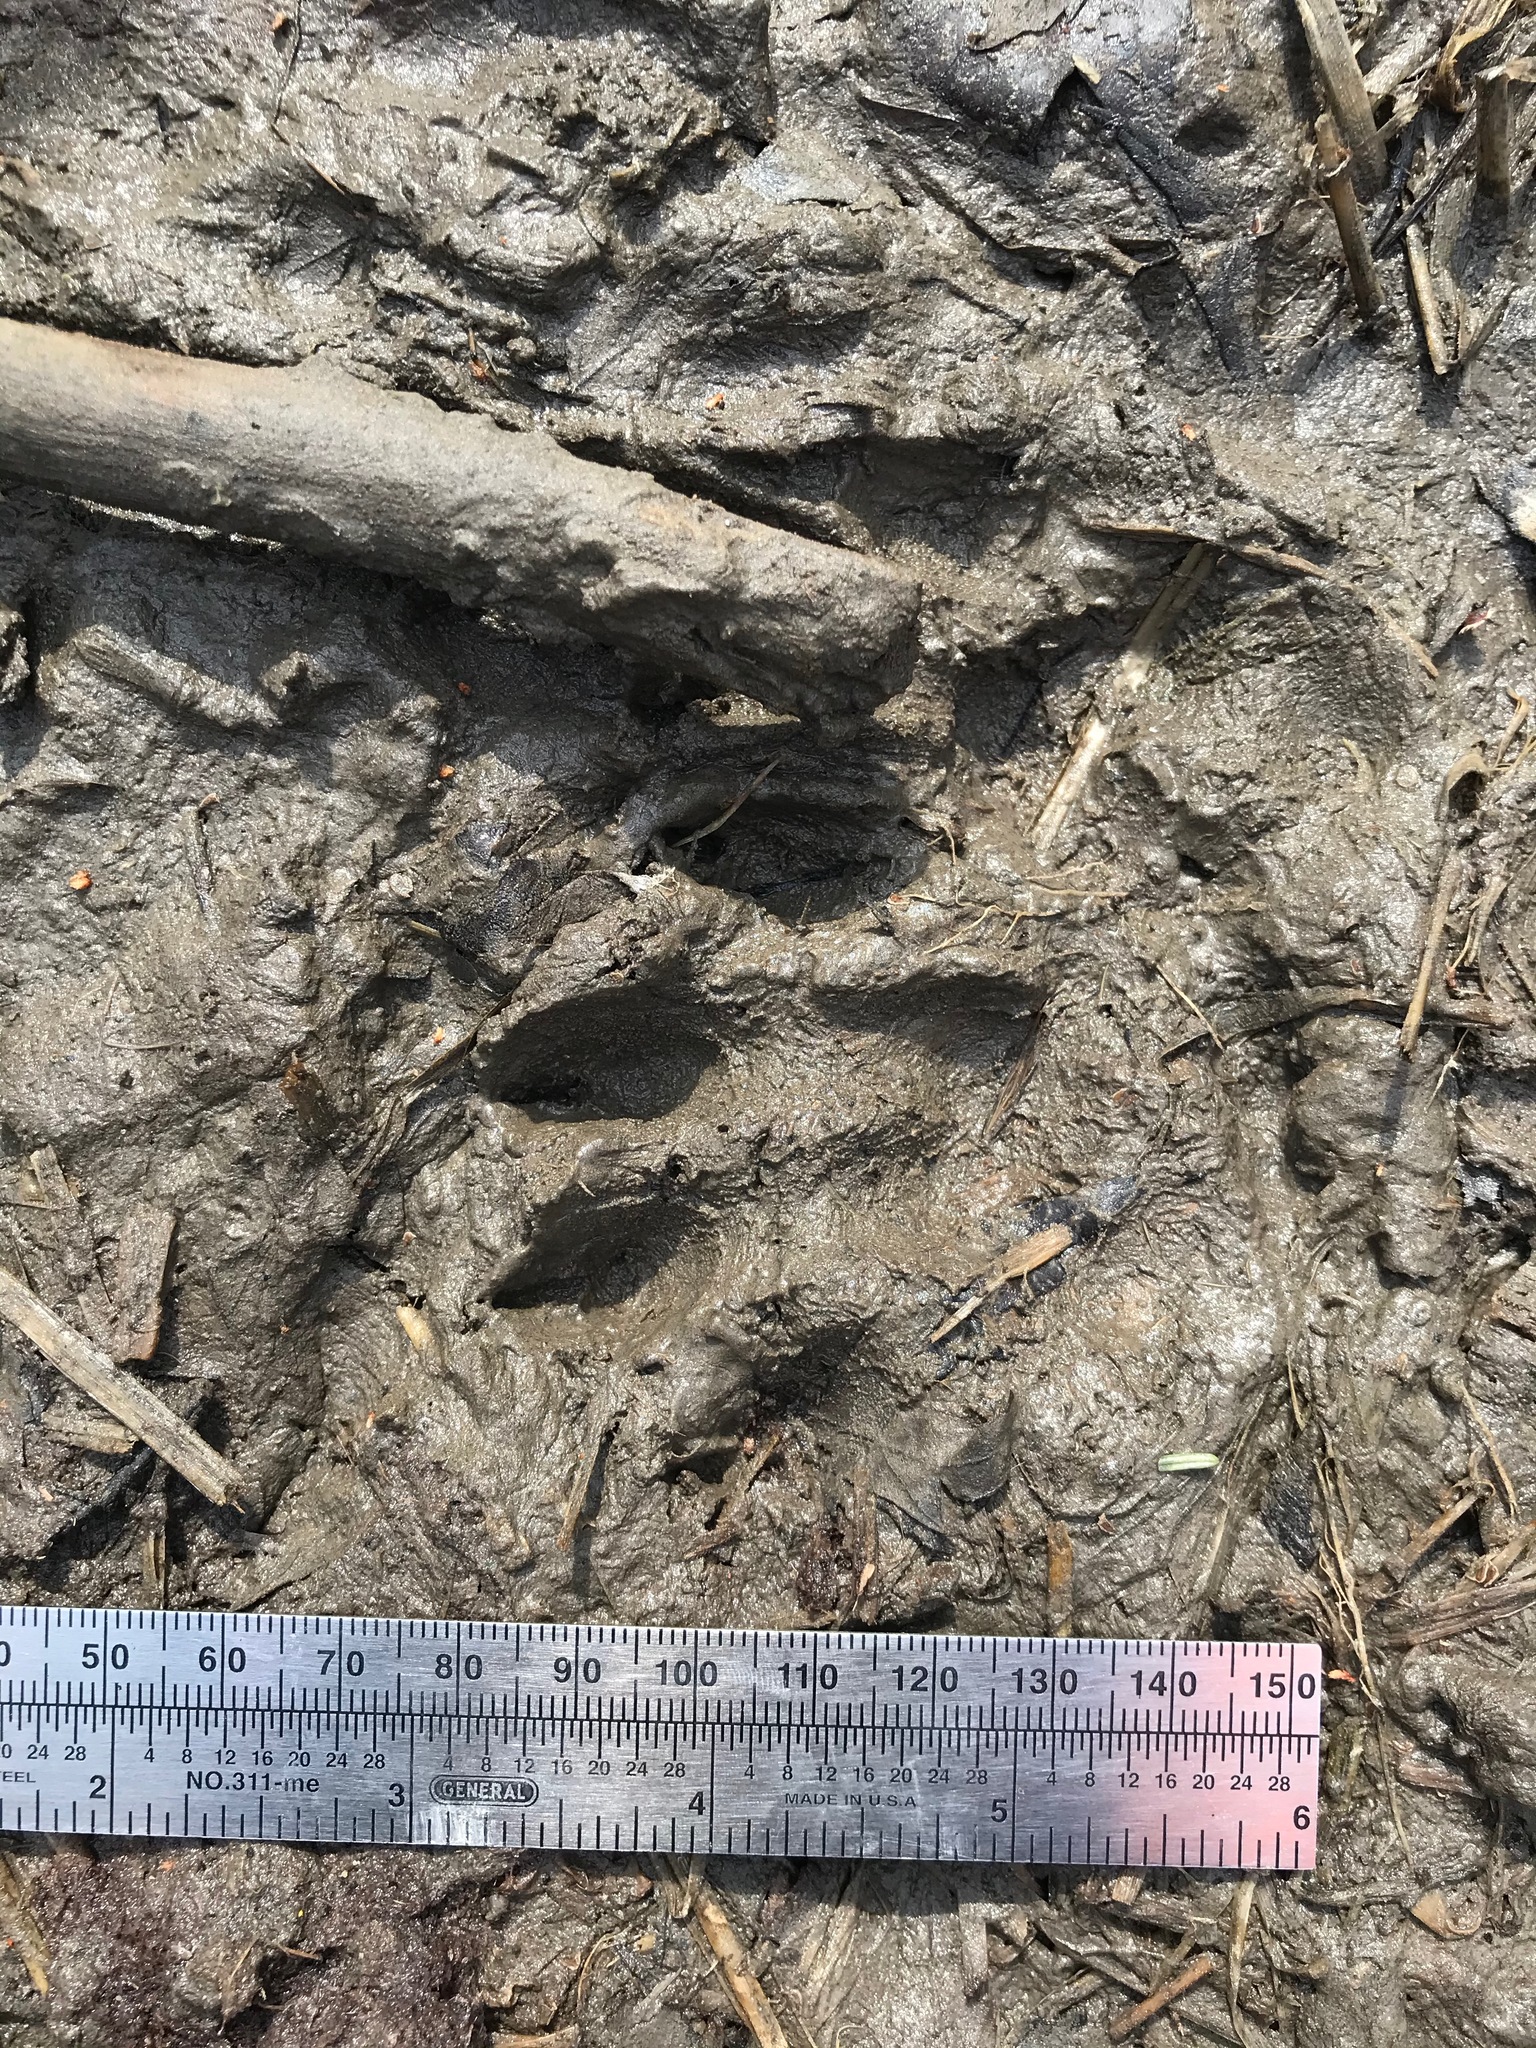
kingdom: Animalia
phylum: Chordata
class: Mammalia
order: Carnivora
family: Mustelidae
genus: Lontra
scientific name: Lontra canadensis
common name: North american river otter
